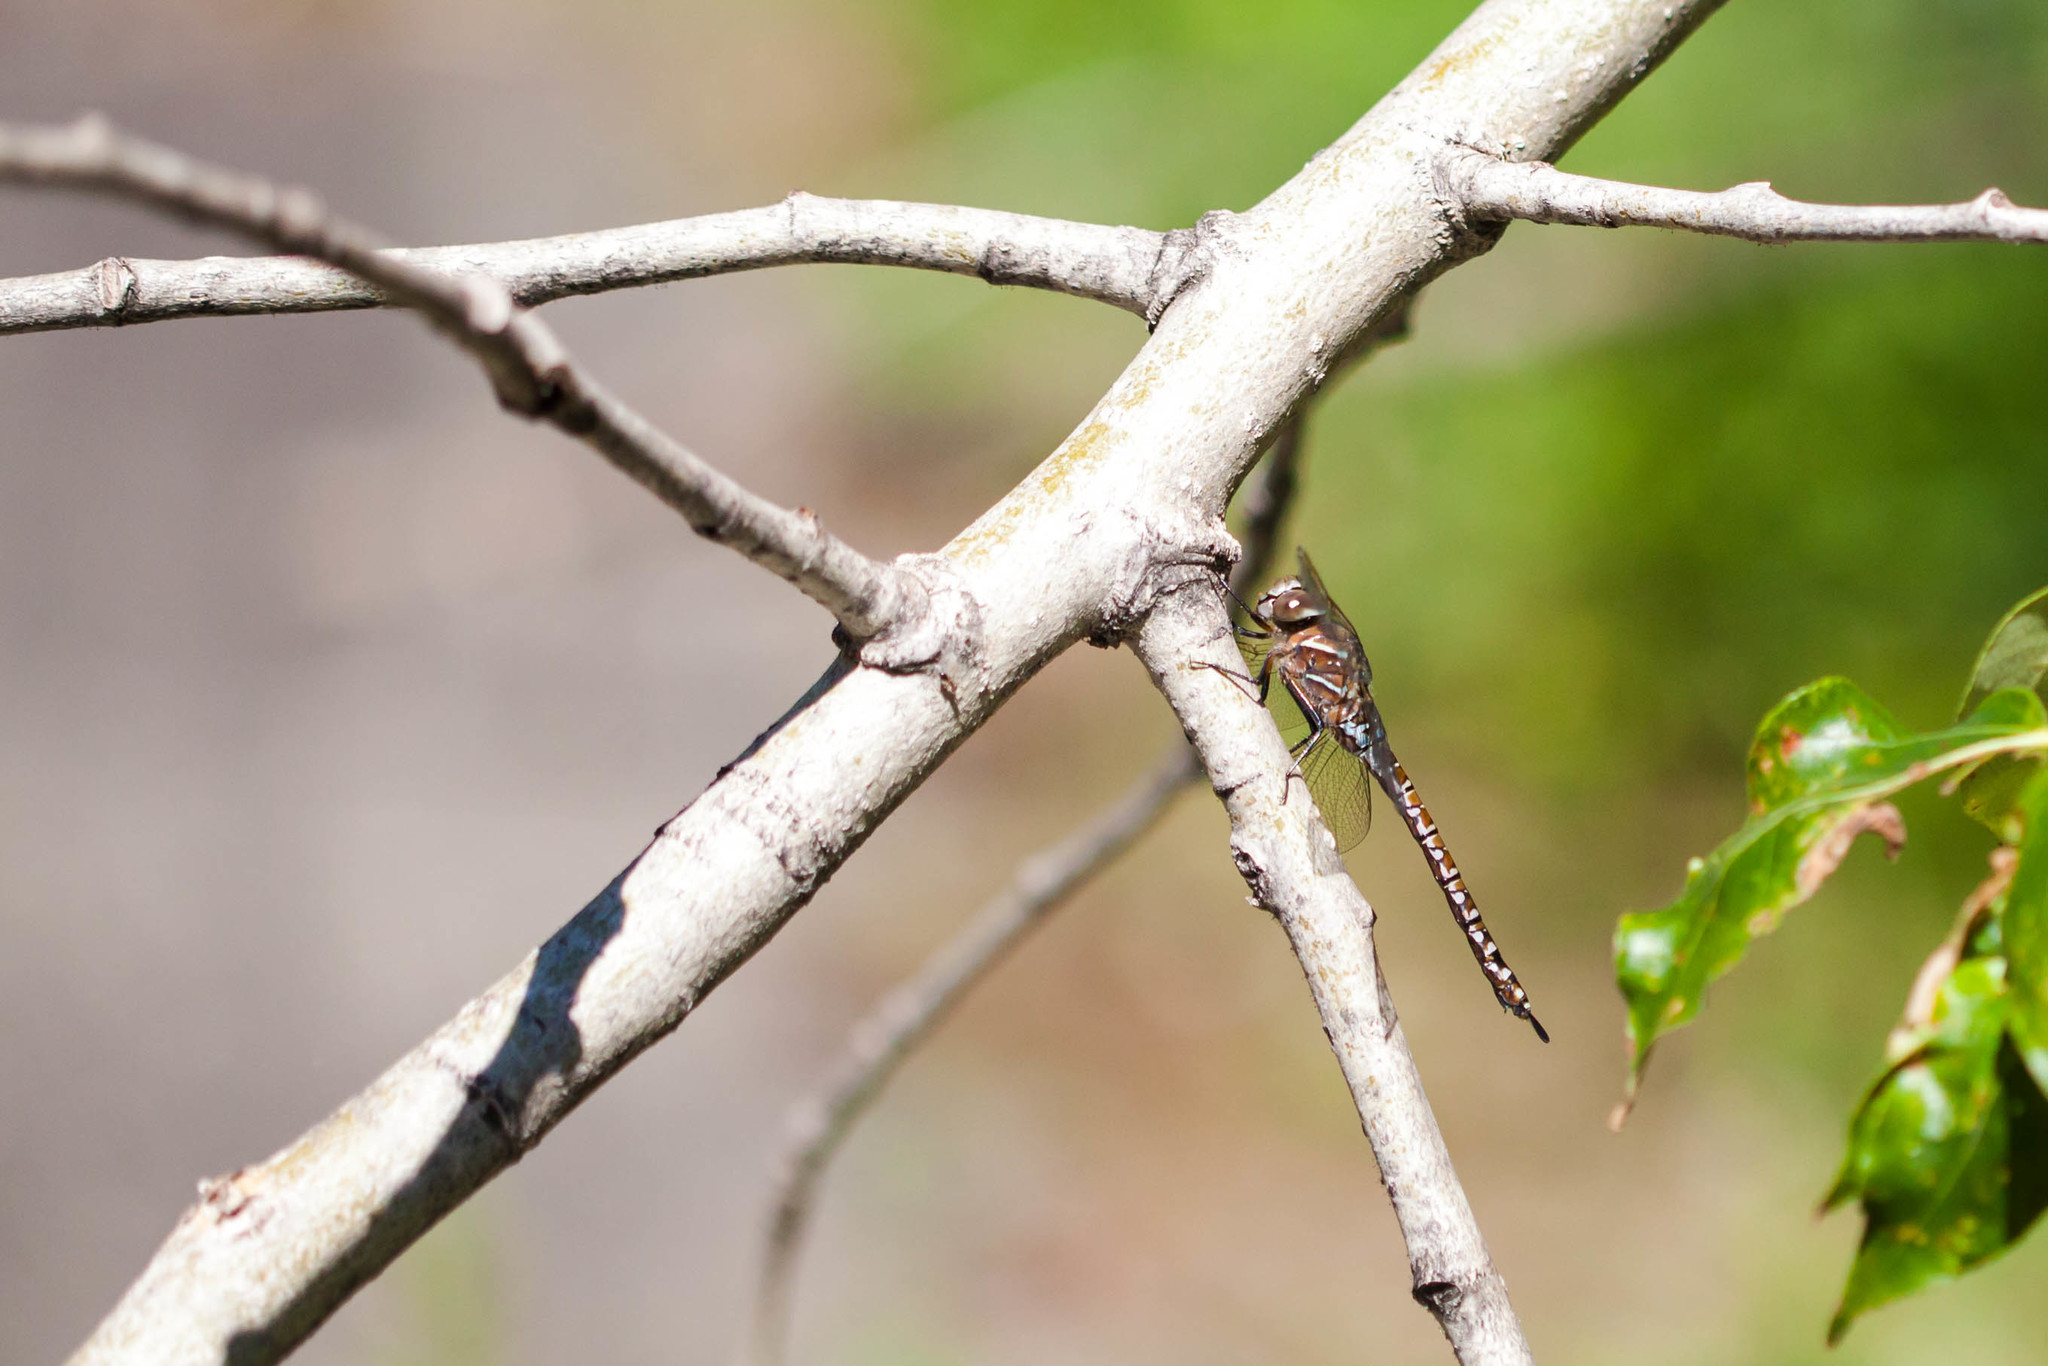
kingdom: Animalia
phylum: Arthropoda
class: Insecta
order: Odonata
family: Aeshnidae
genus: Aeshna
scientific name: Aeshna interrupta
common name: Variable darner
